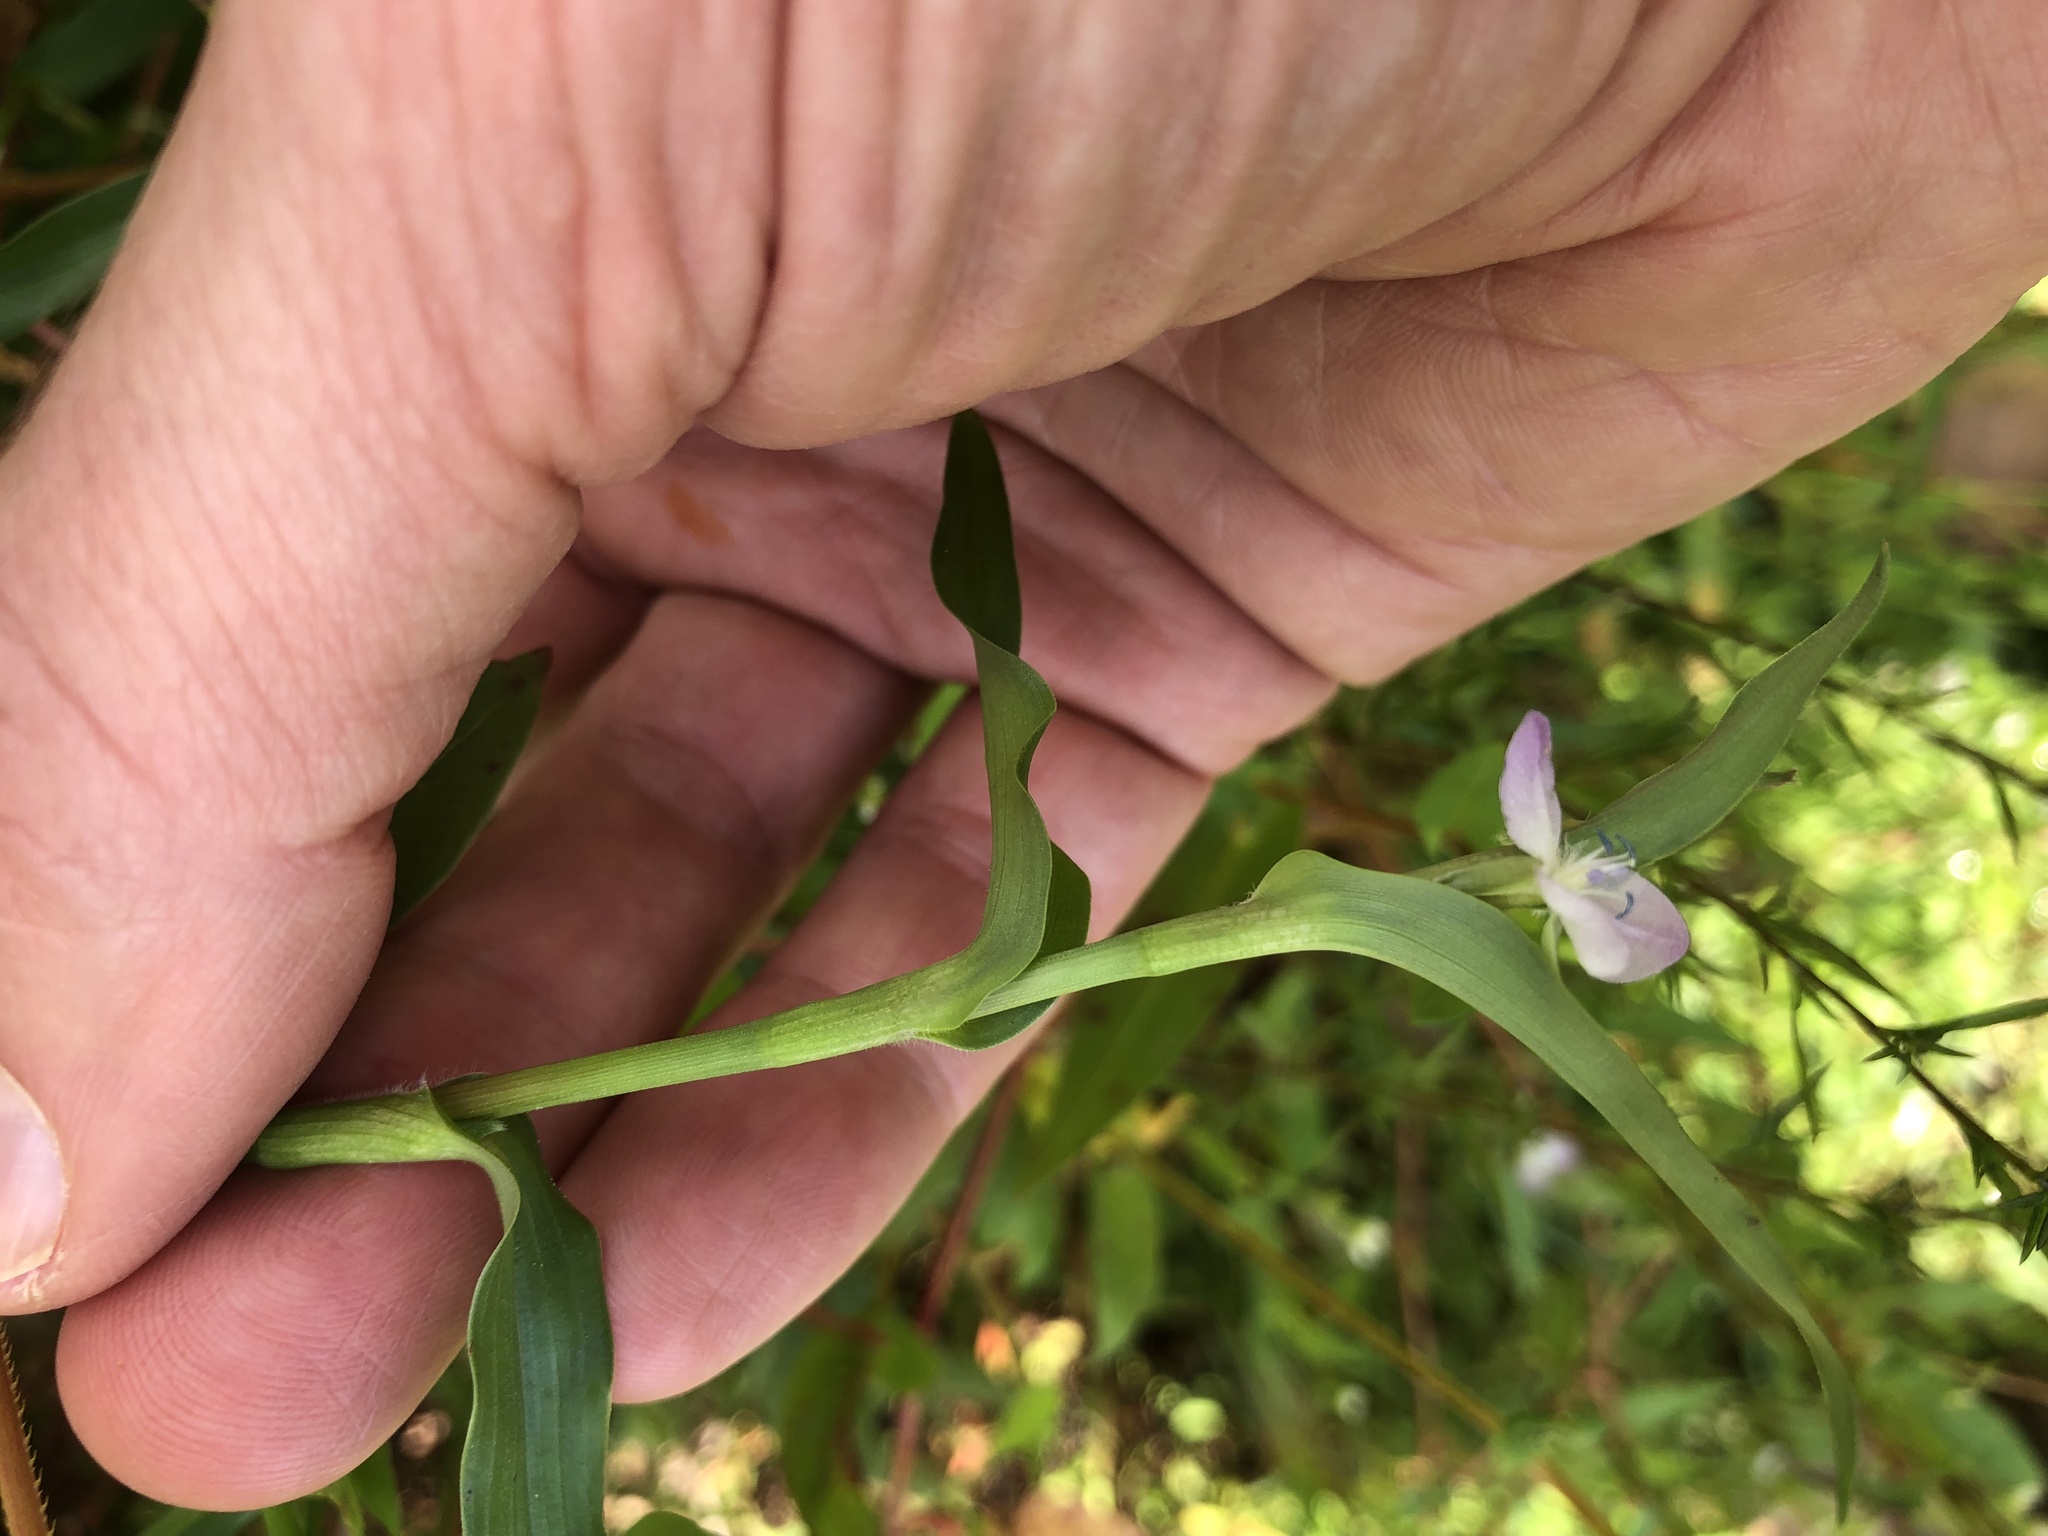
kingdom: Plantae
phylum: Tracheophyta
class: Liliopsida
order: Commelinales
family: Commelinaceae
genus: Murdannia
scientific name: Murdannia keisak
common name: Wartremoving herb
